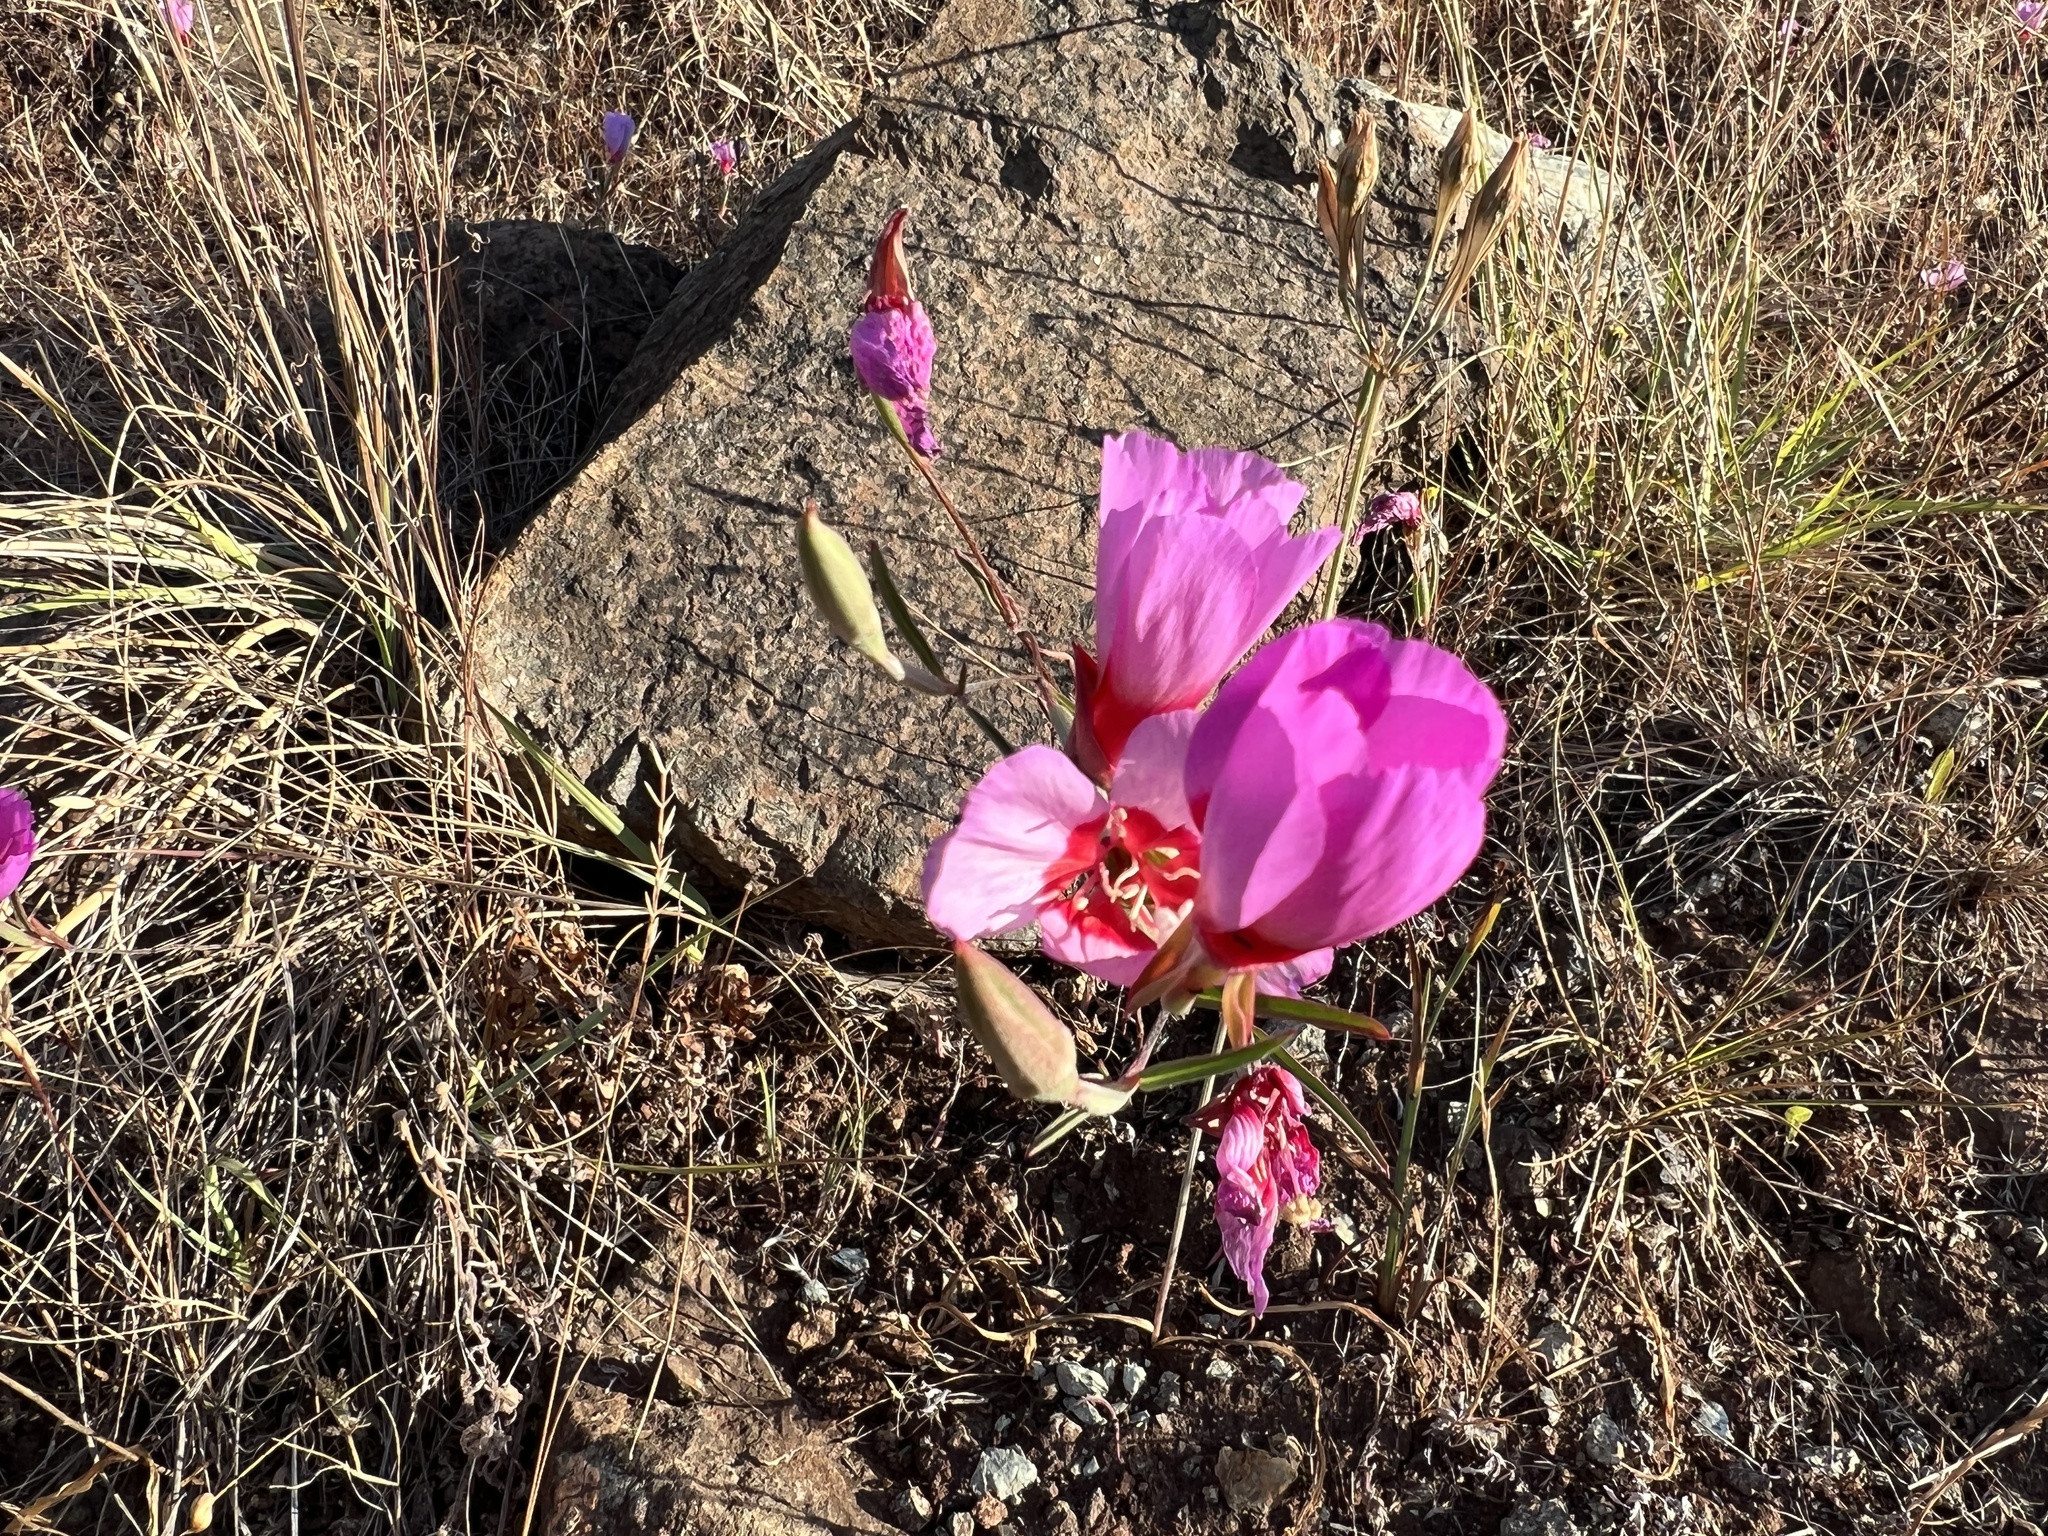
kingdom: Plantae
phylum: Tracheophyta
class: Magnoliopsida
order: Myrtales
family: Onagraceae
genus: Clarkia
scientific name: Clarkia rubicunda
